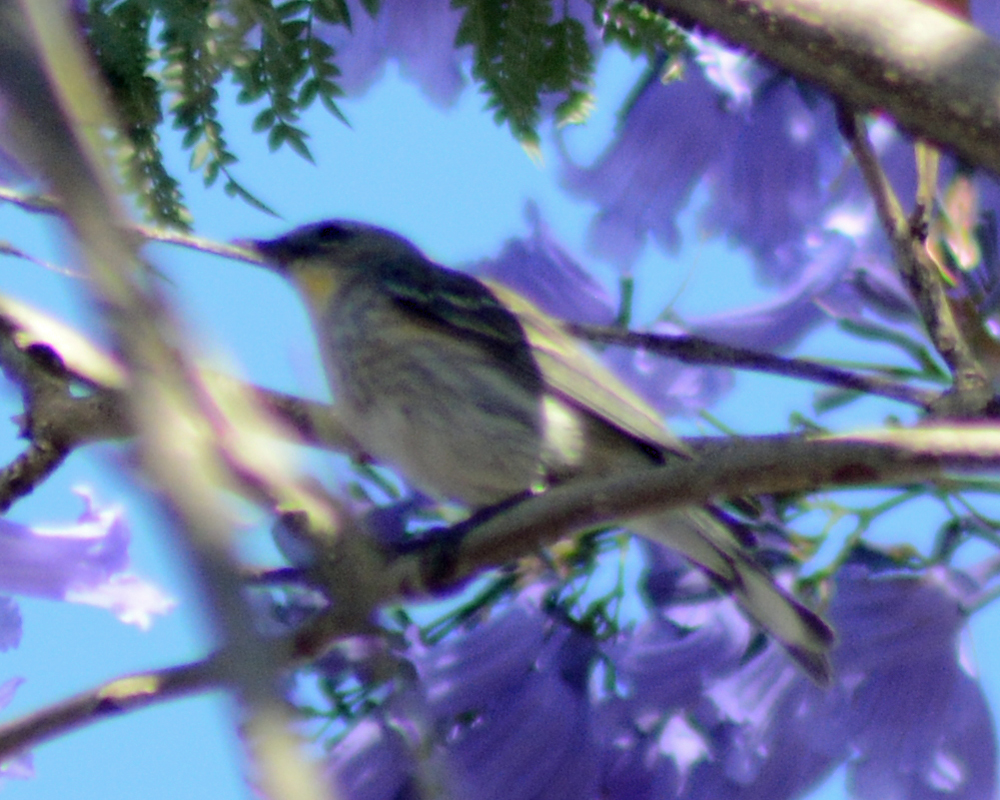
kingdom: Animalia
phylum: Chordata
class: Aves
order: Passeriformes
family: Parulidae
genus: Setophaga
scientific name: Setophaga coronata
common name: Myrtle warbler
